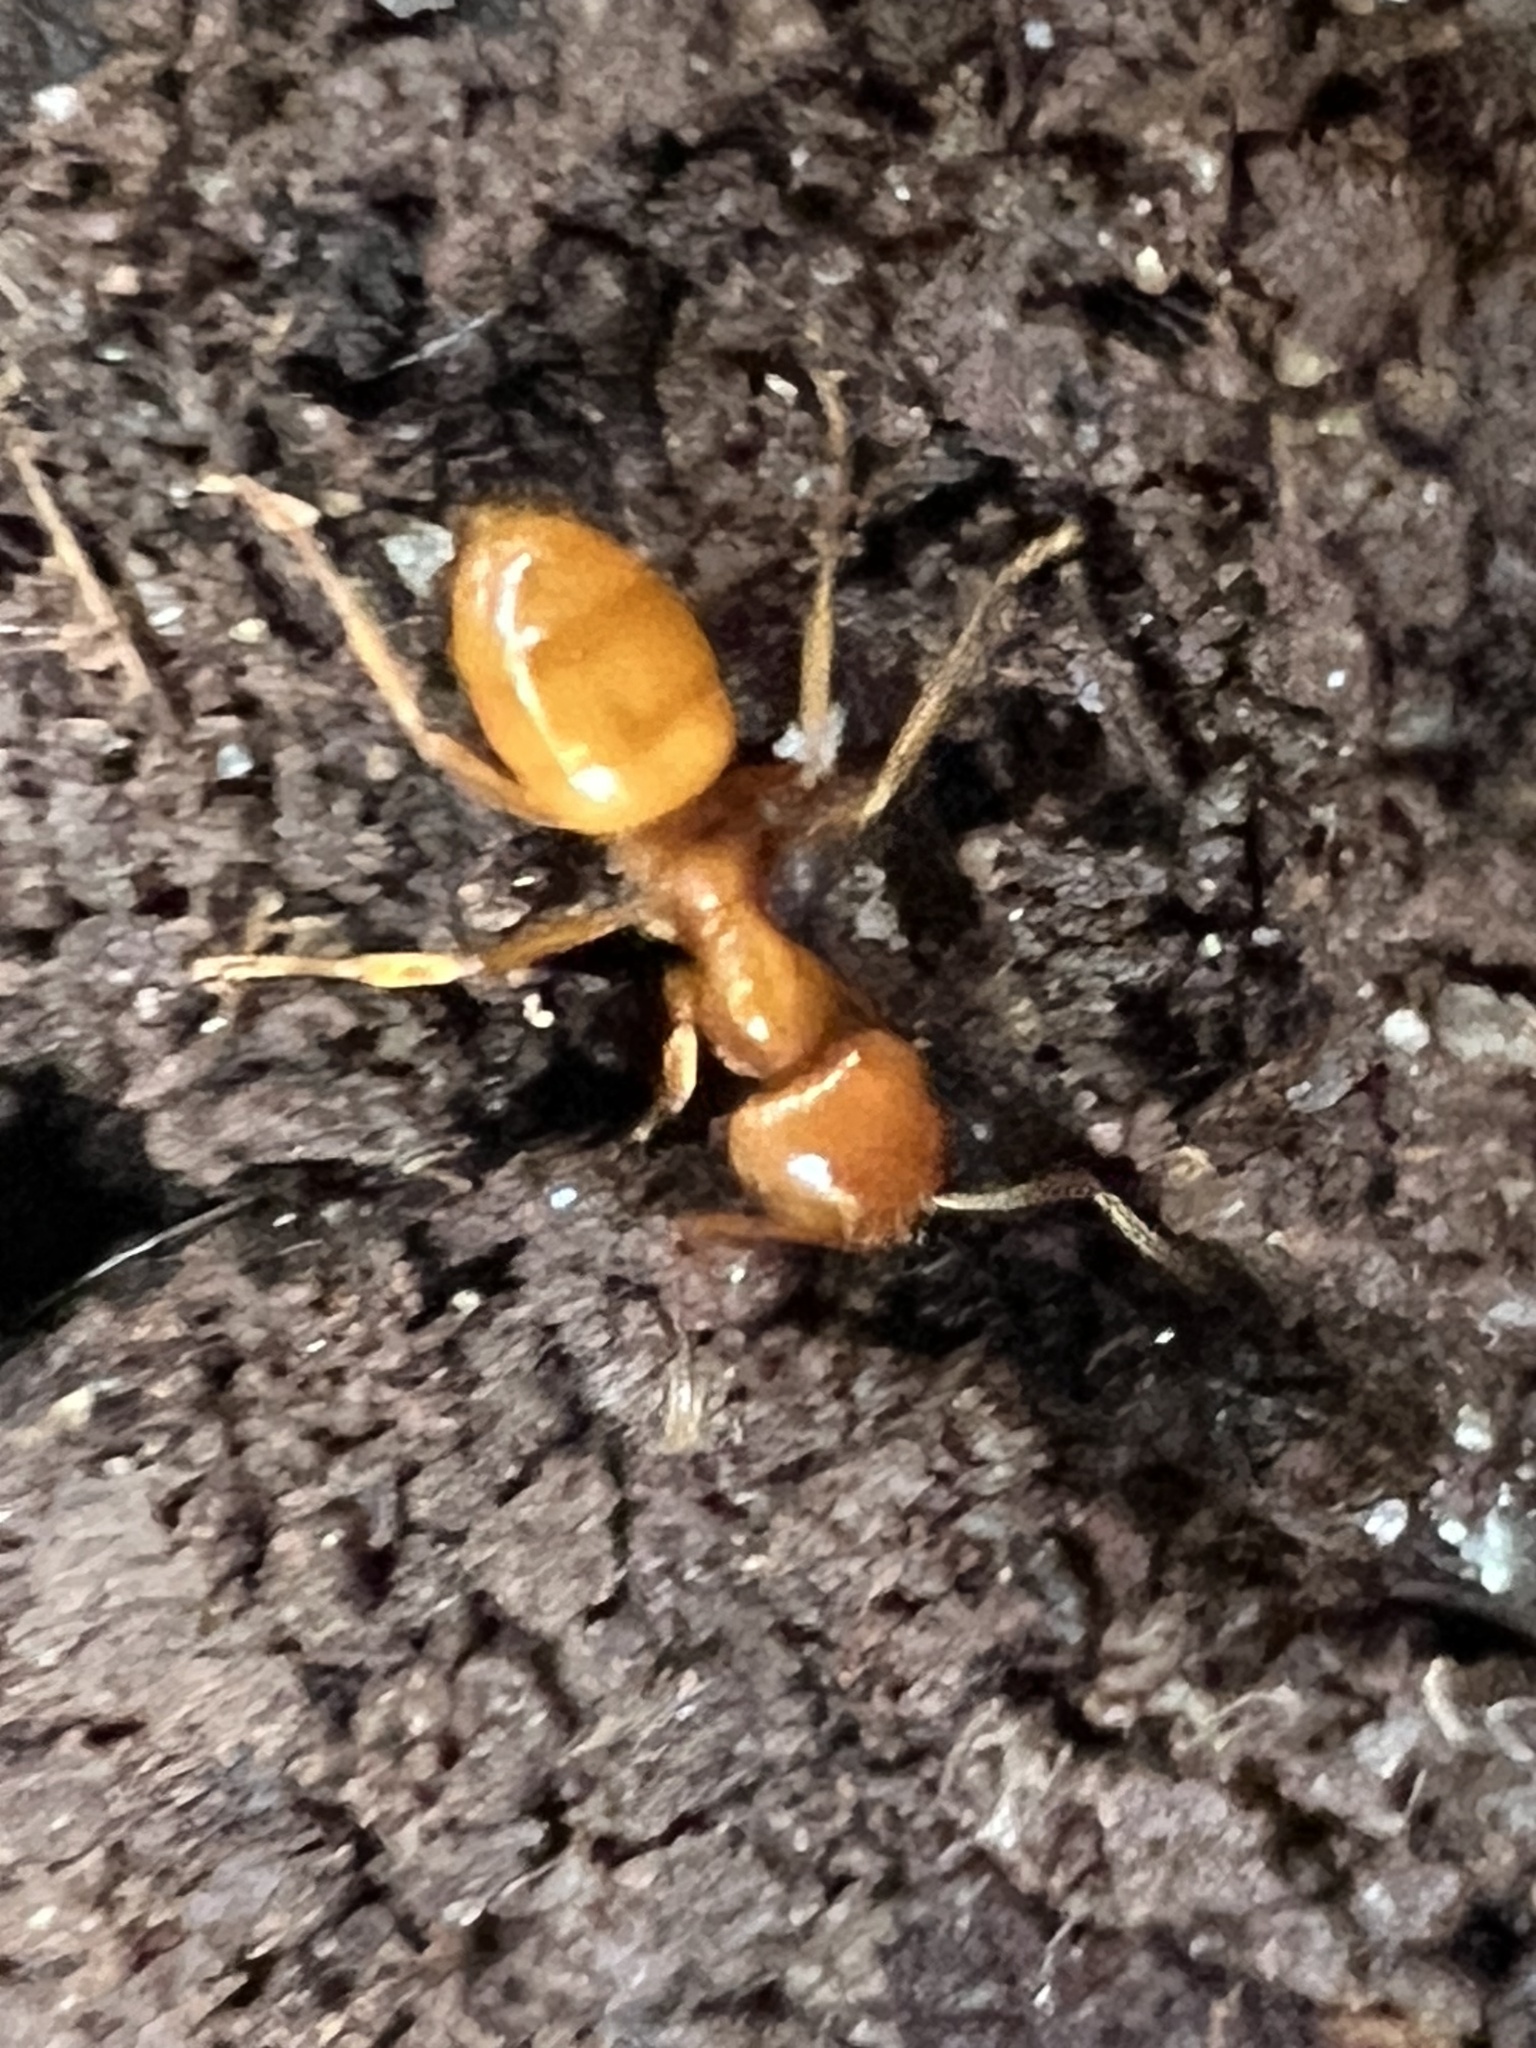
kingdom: Animalia
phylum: Arthropoda
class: Insecta
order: Hymenoptera
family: Formicidae
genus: Acanthomyops
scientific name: Acanthomyops interjectus
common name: Larger yellow ant
